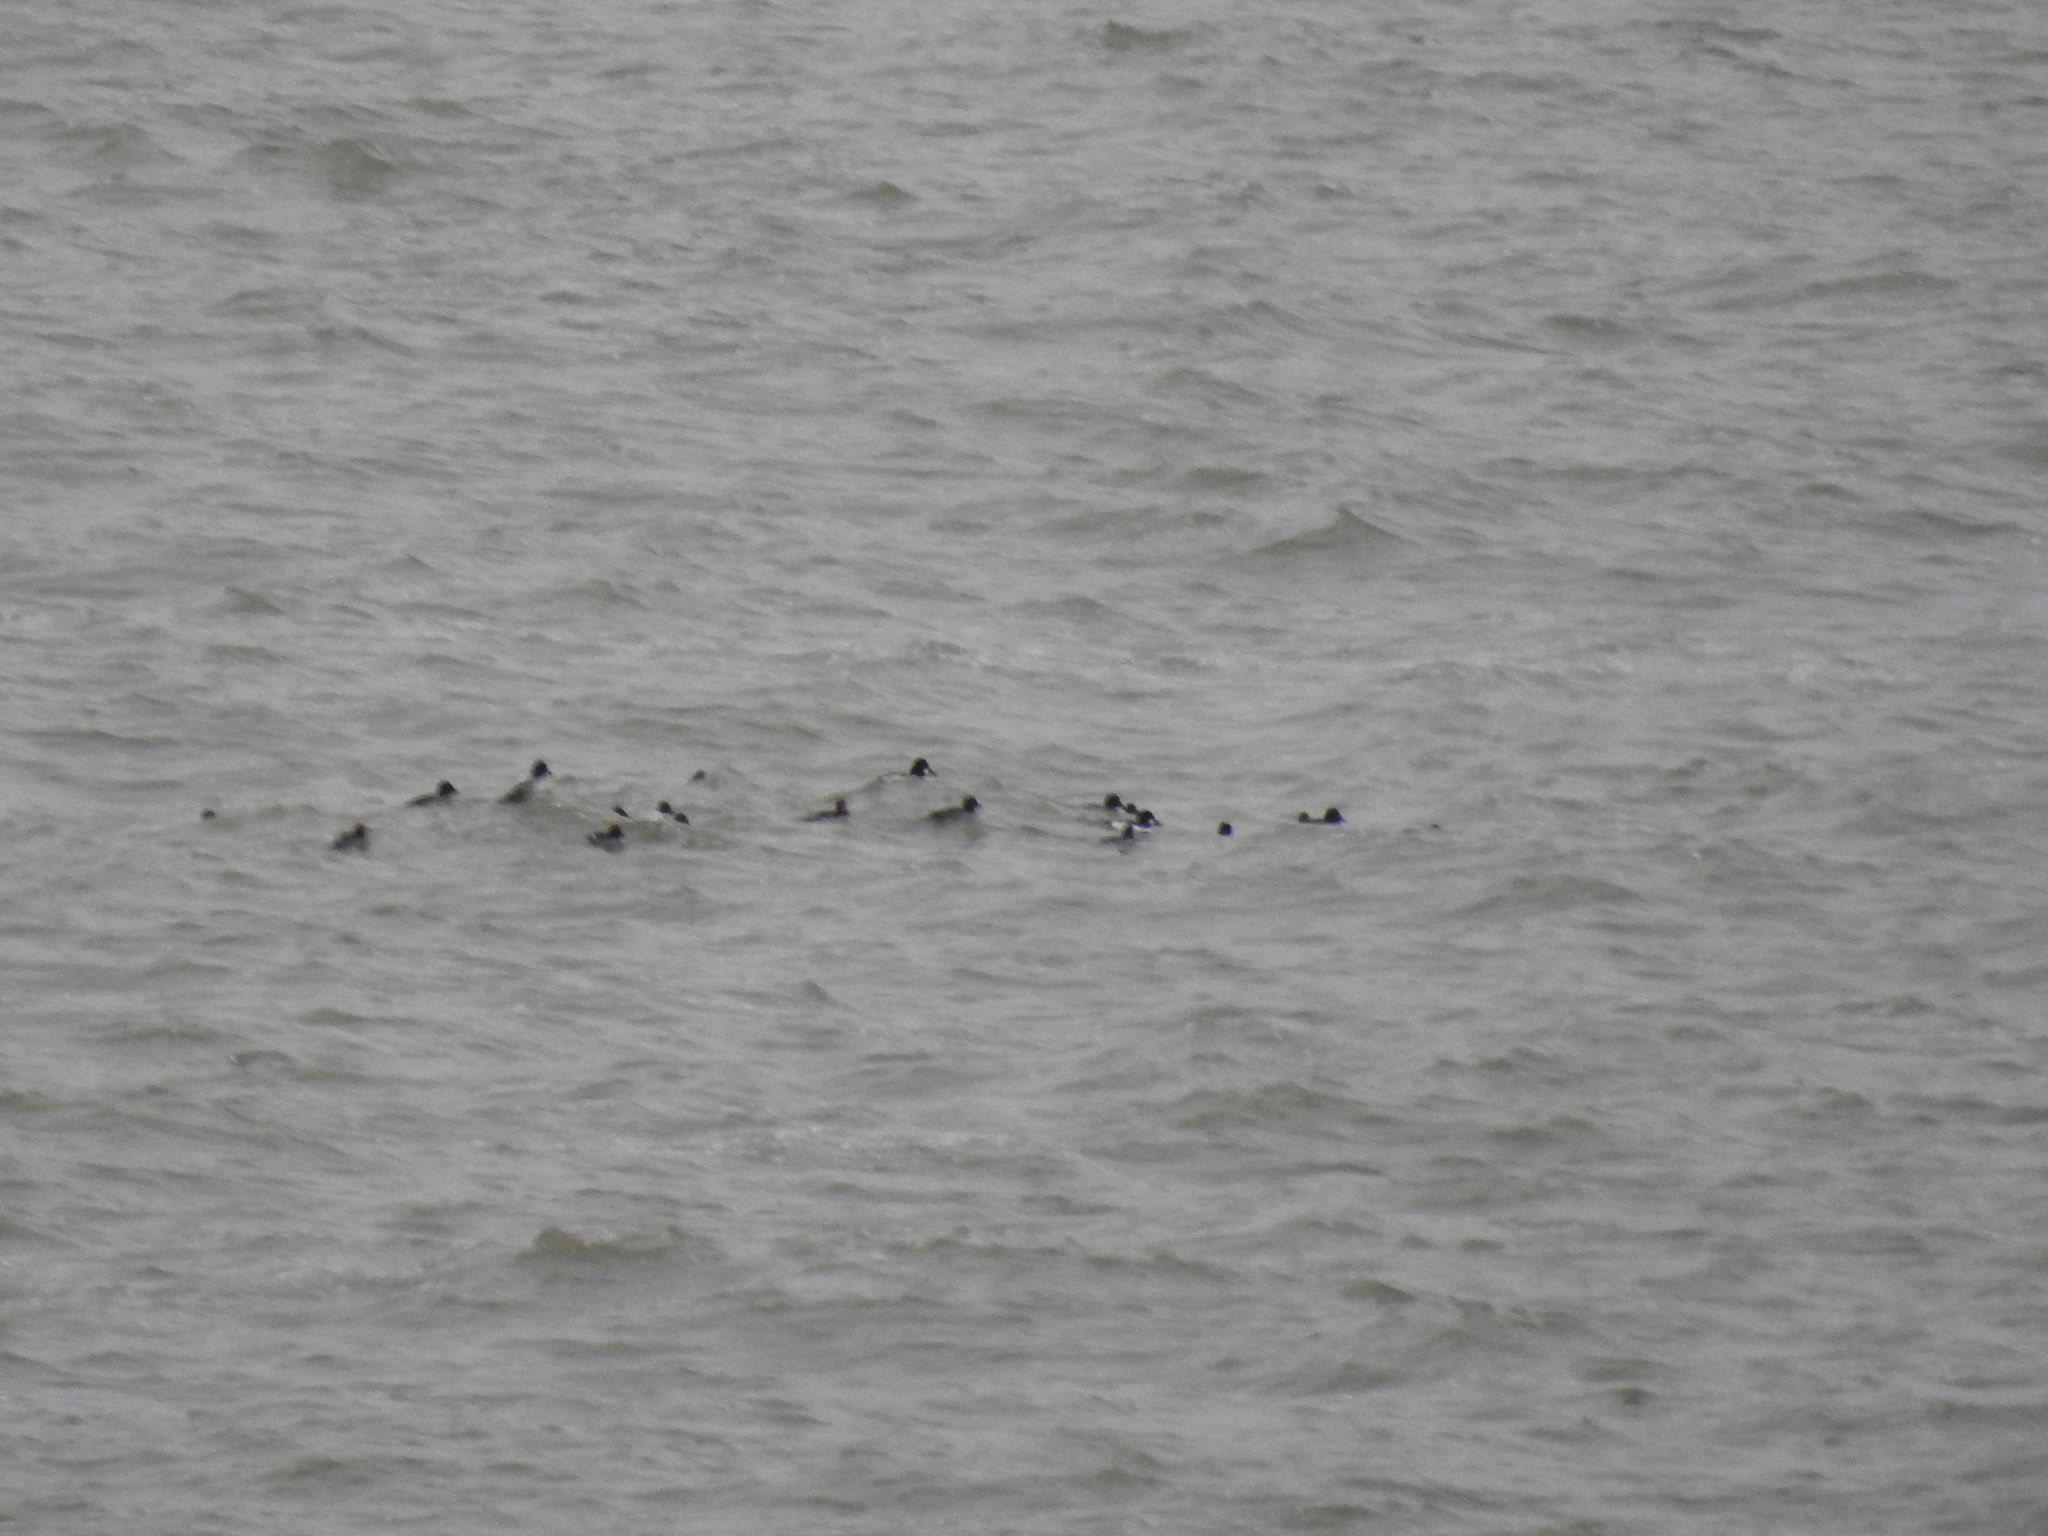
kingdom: Animalia
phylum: Chordata
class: Aves
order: Anseriformes
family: Anatidae
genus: Bucephala
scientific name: Bucephala clangula
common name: Common goldeneye
